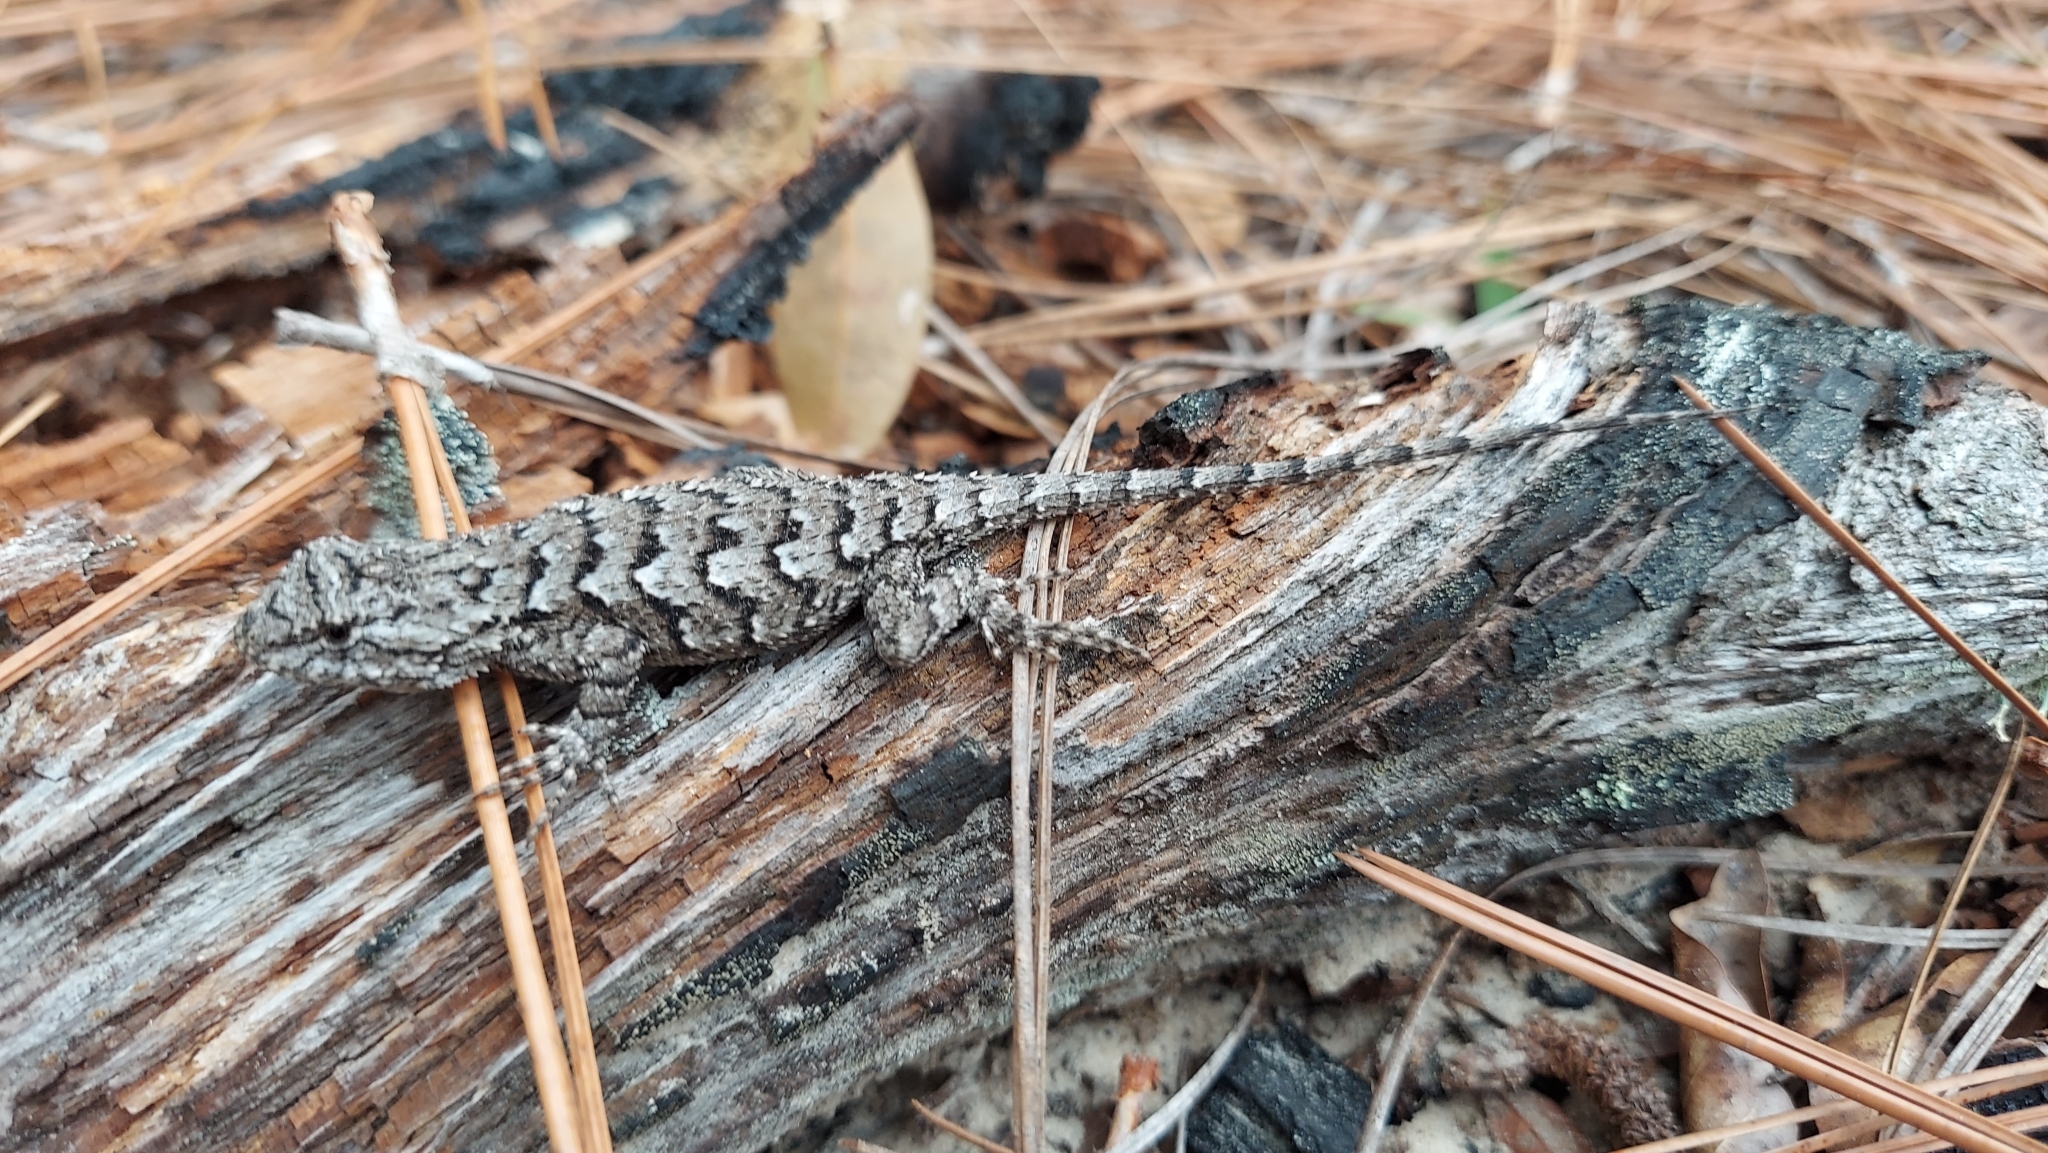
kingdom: Animalia
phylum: Chordata
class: Squamata
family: Phrynosomatidae
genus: Sceloporus
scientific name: Sceloporus undulatus
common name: Eastern fence lizard
